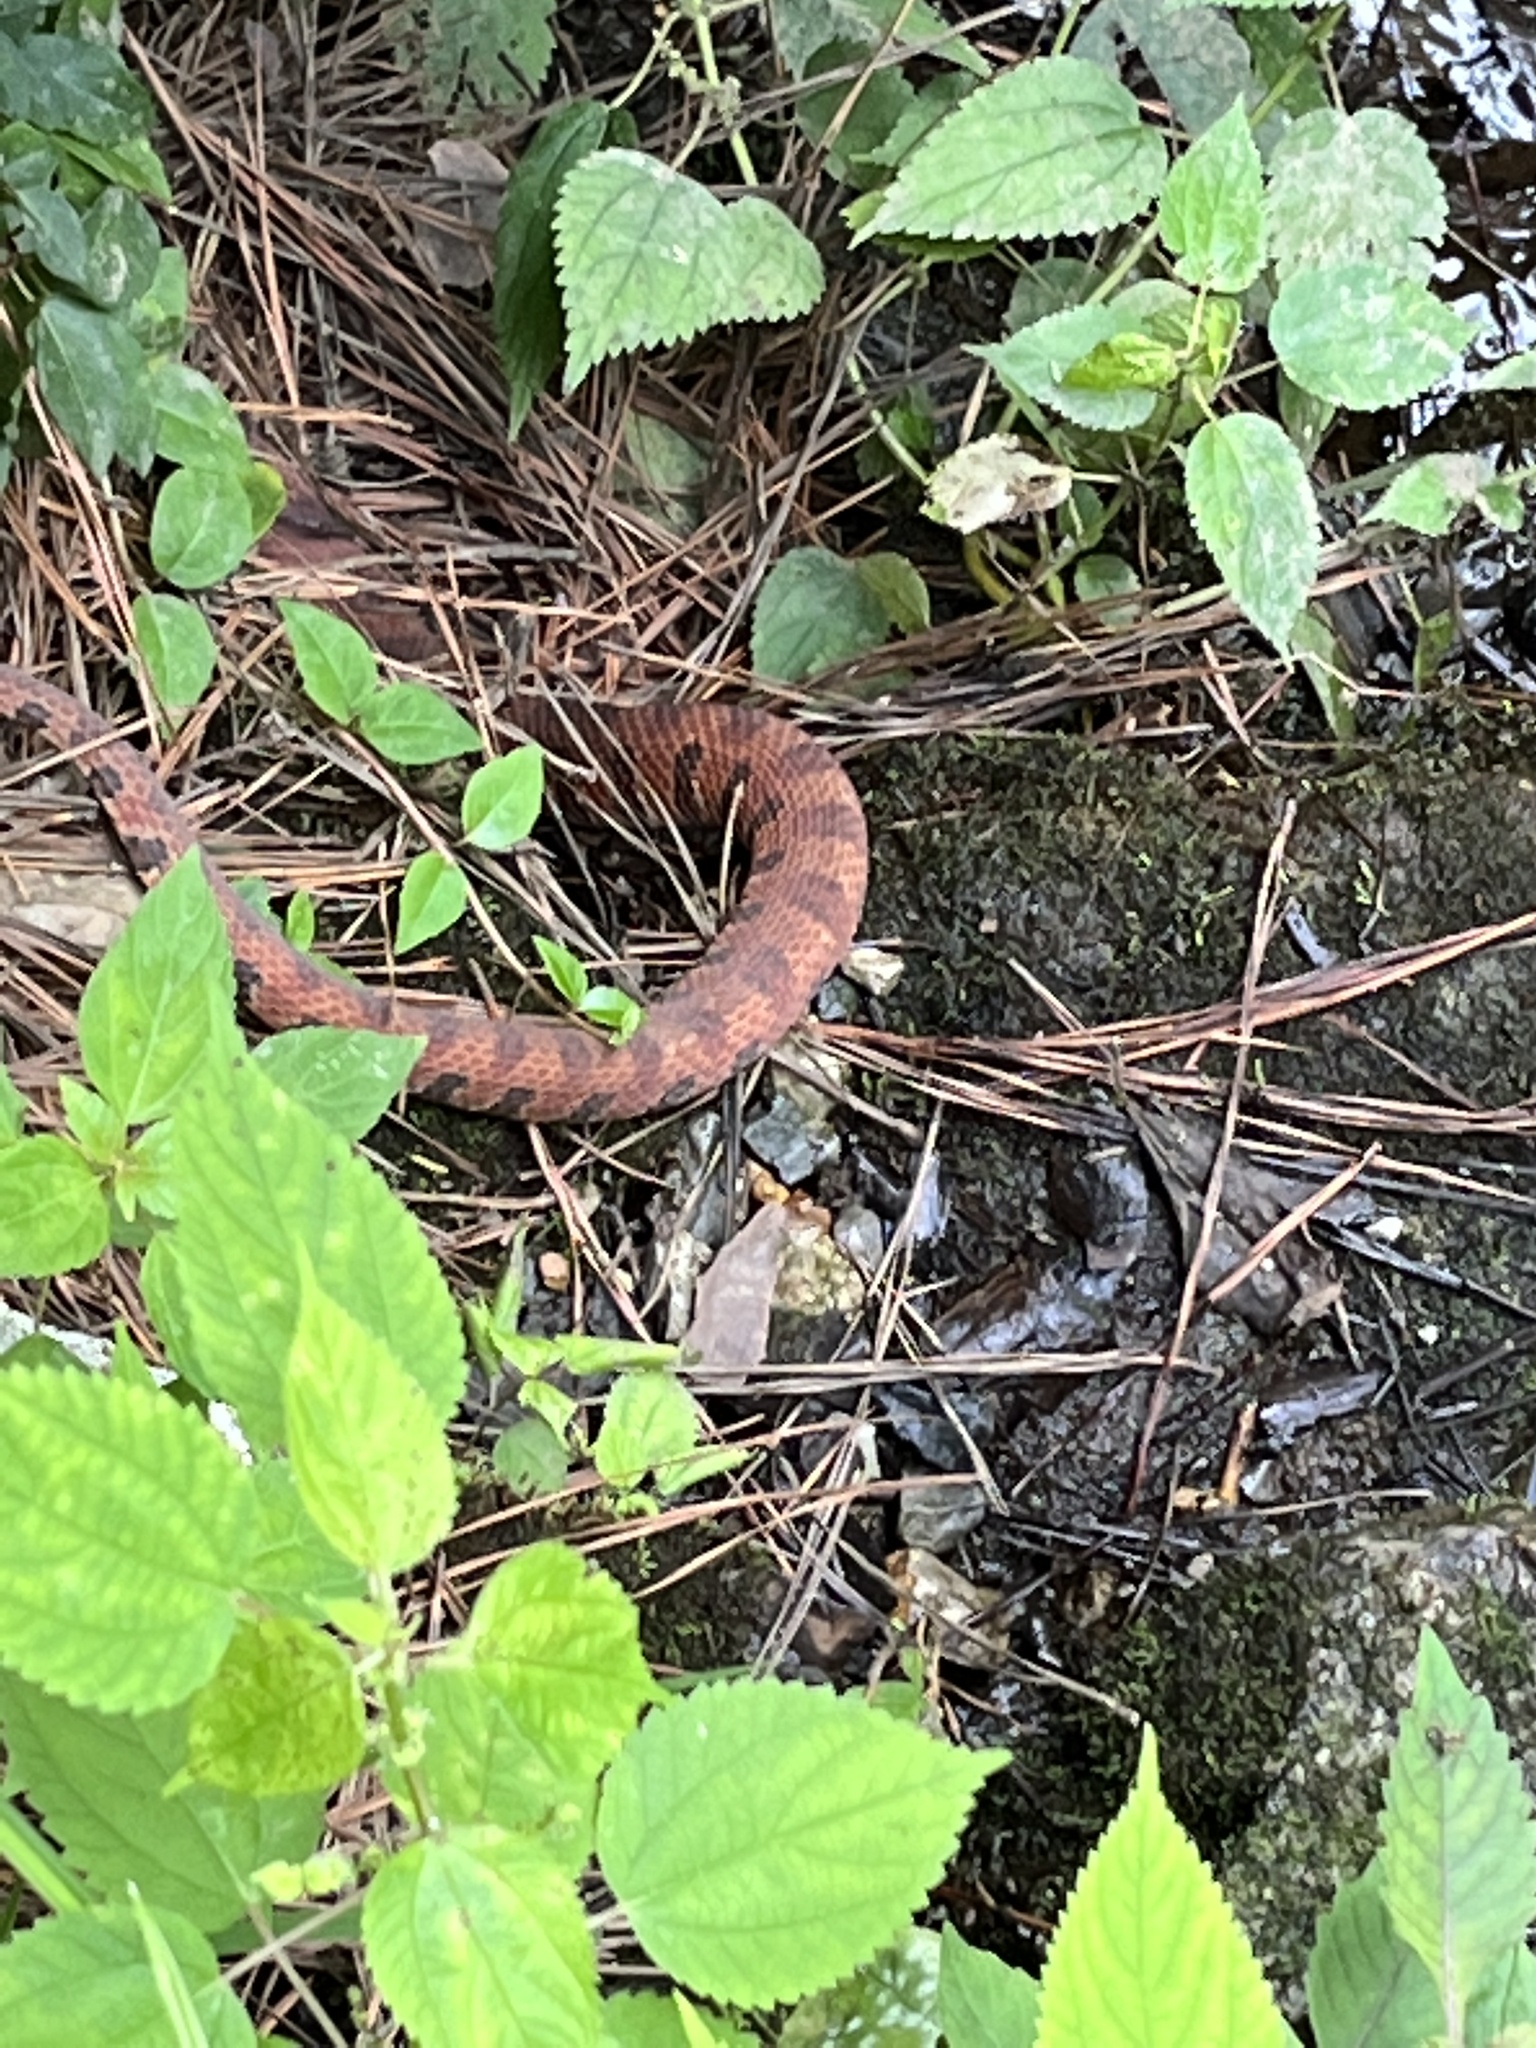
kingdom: Animalia
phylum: Chordata
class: Squamata
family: Colubridae
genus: Nerodia
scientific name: Nerodia sipedon
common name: Northern water snake
